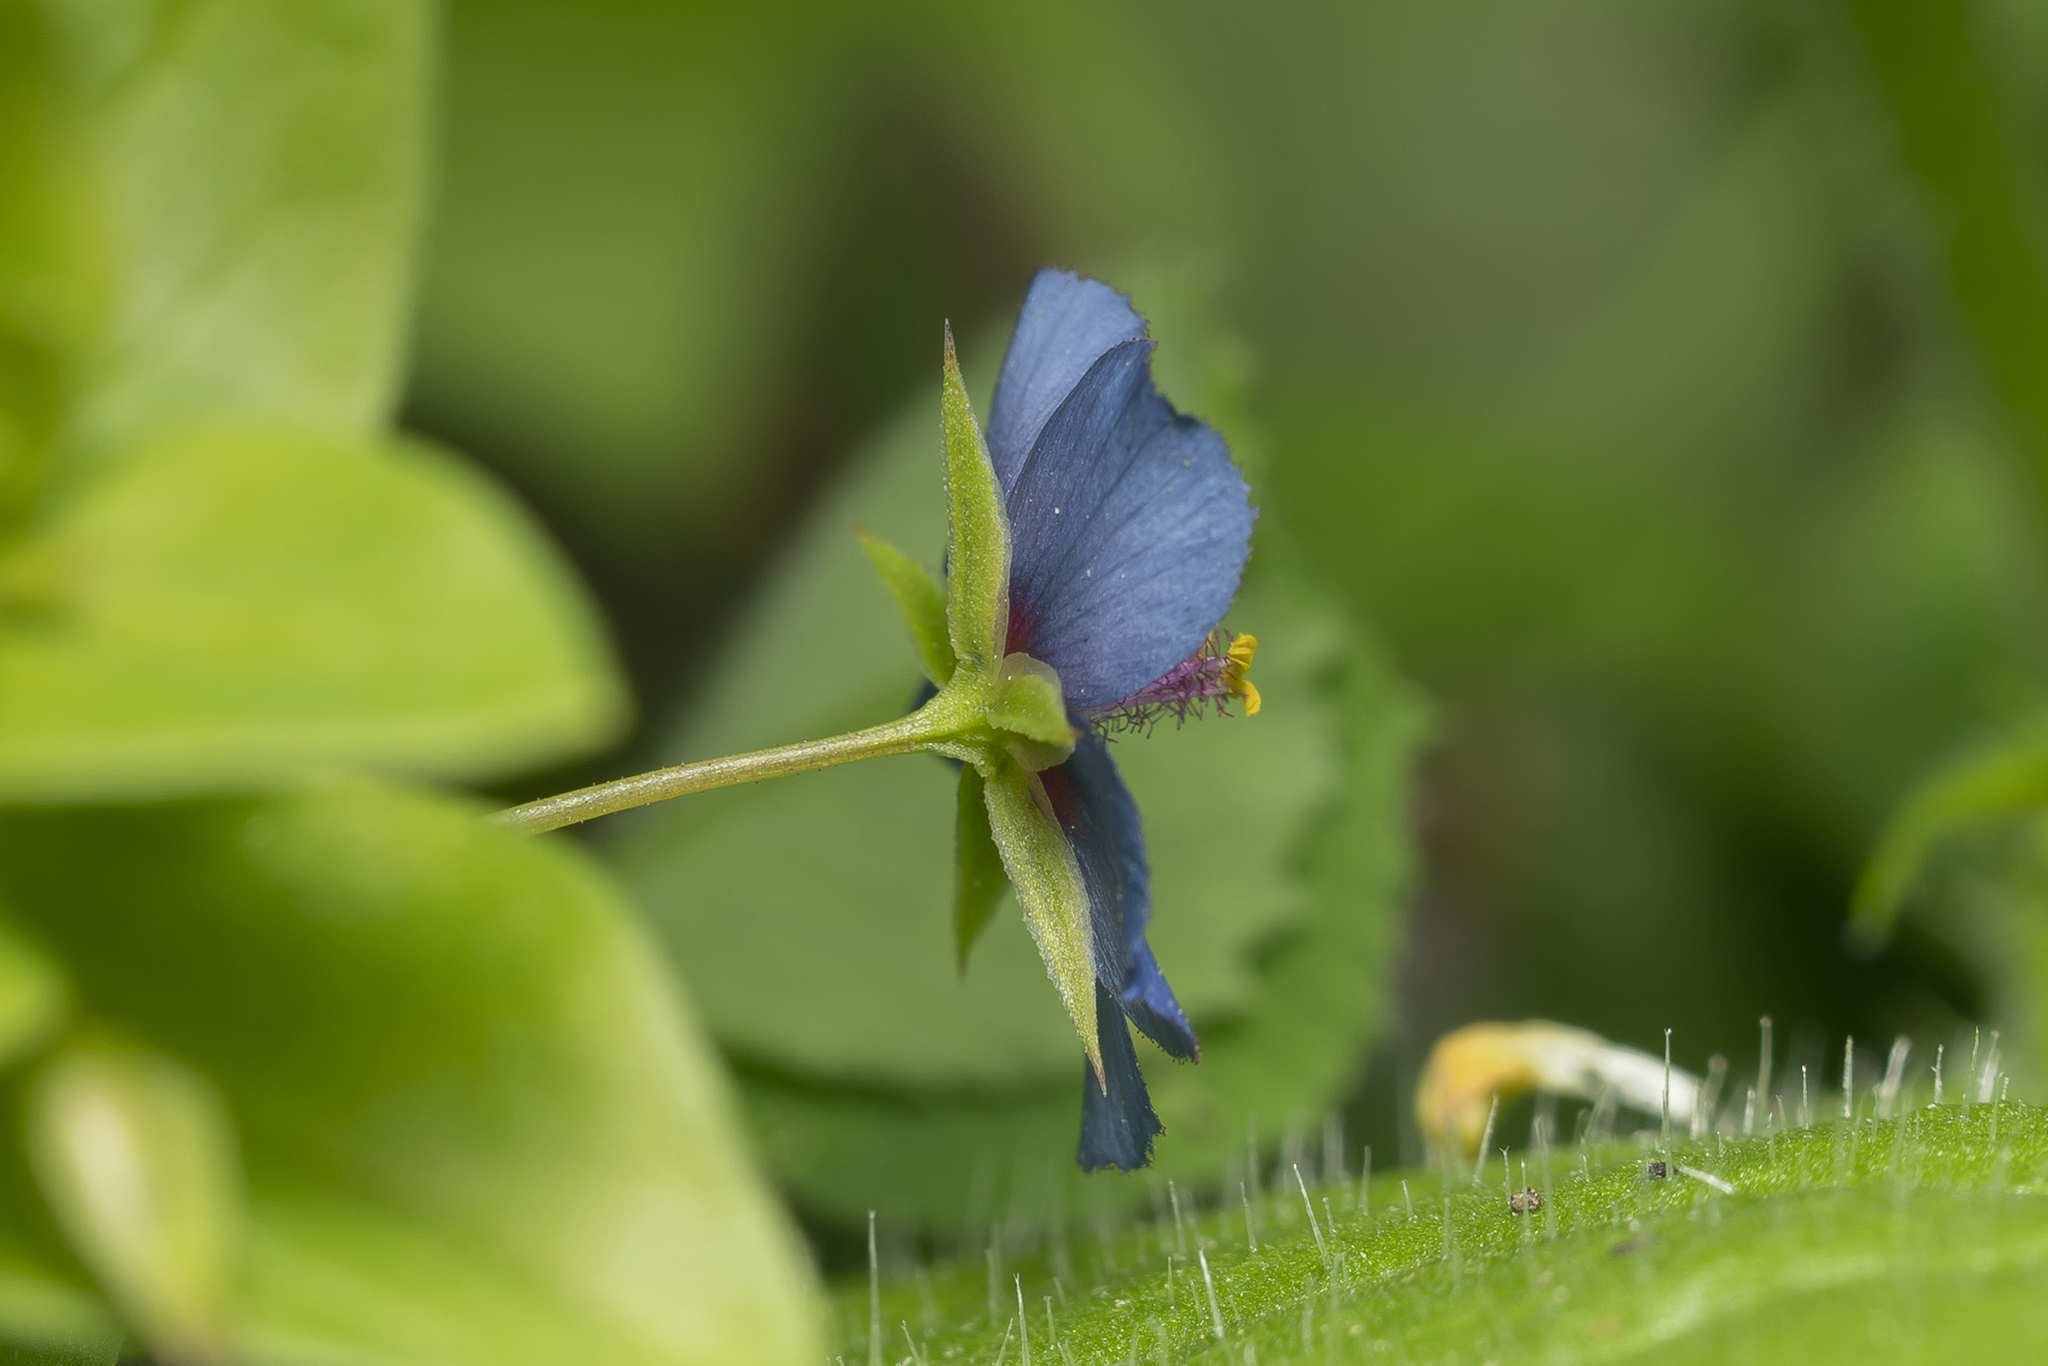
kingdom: Plantae
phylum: Tracheophyta
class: Magnoliopsida
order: Ericales
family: Primulaceae
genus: Lysimachia
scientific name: Lysimachia loeflingii
